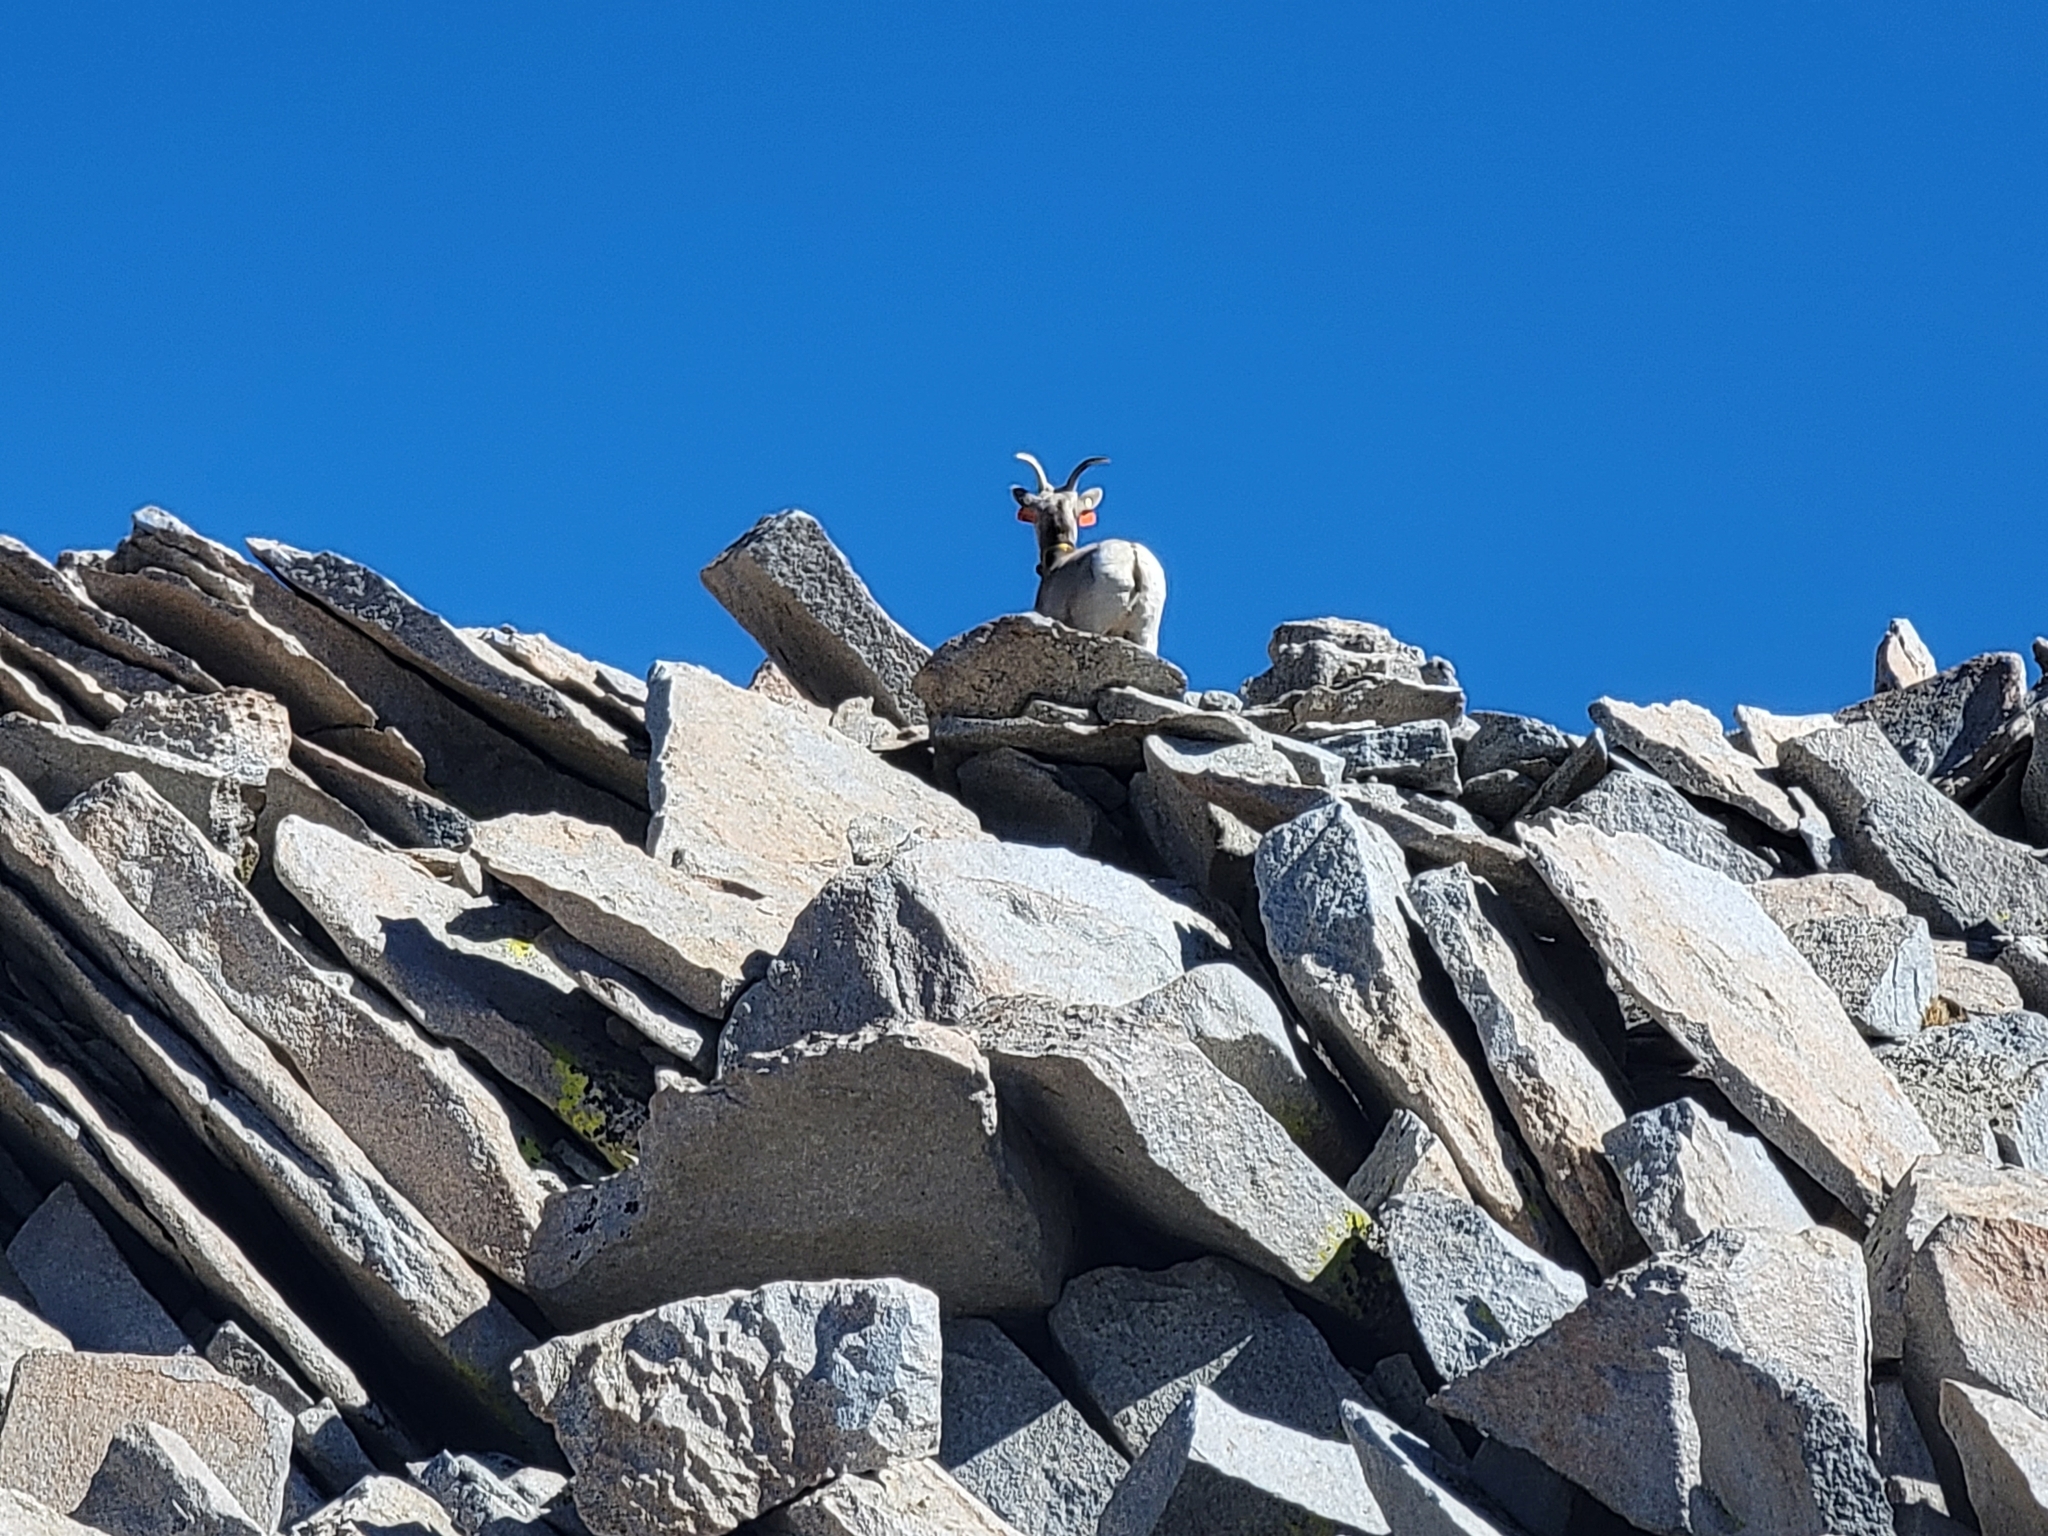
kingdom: Animalia
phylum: Chordata
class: Mammalia
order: Artiodactyla
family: Bovidae
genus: Ovis
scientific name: Ovis canadensis
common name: Bighorn sheep
